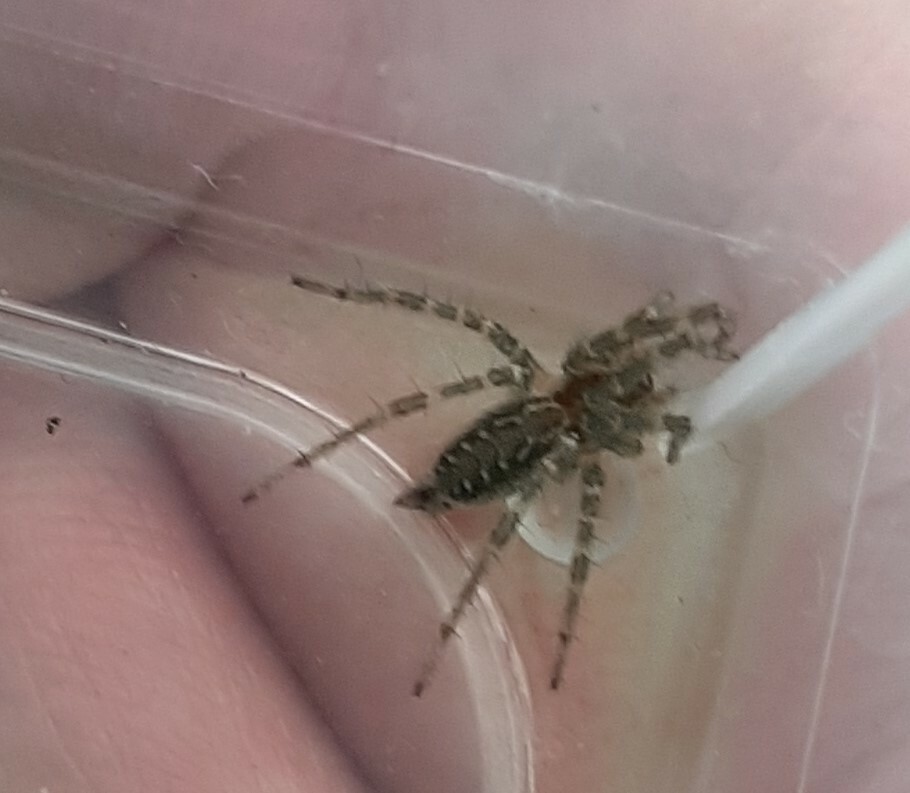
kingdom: Animalia
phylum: Arthropoda
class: Arachnida
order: Araneae
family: Agelenidae
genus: Allagelena
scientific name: Allagelena gracilens
